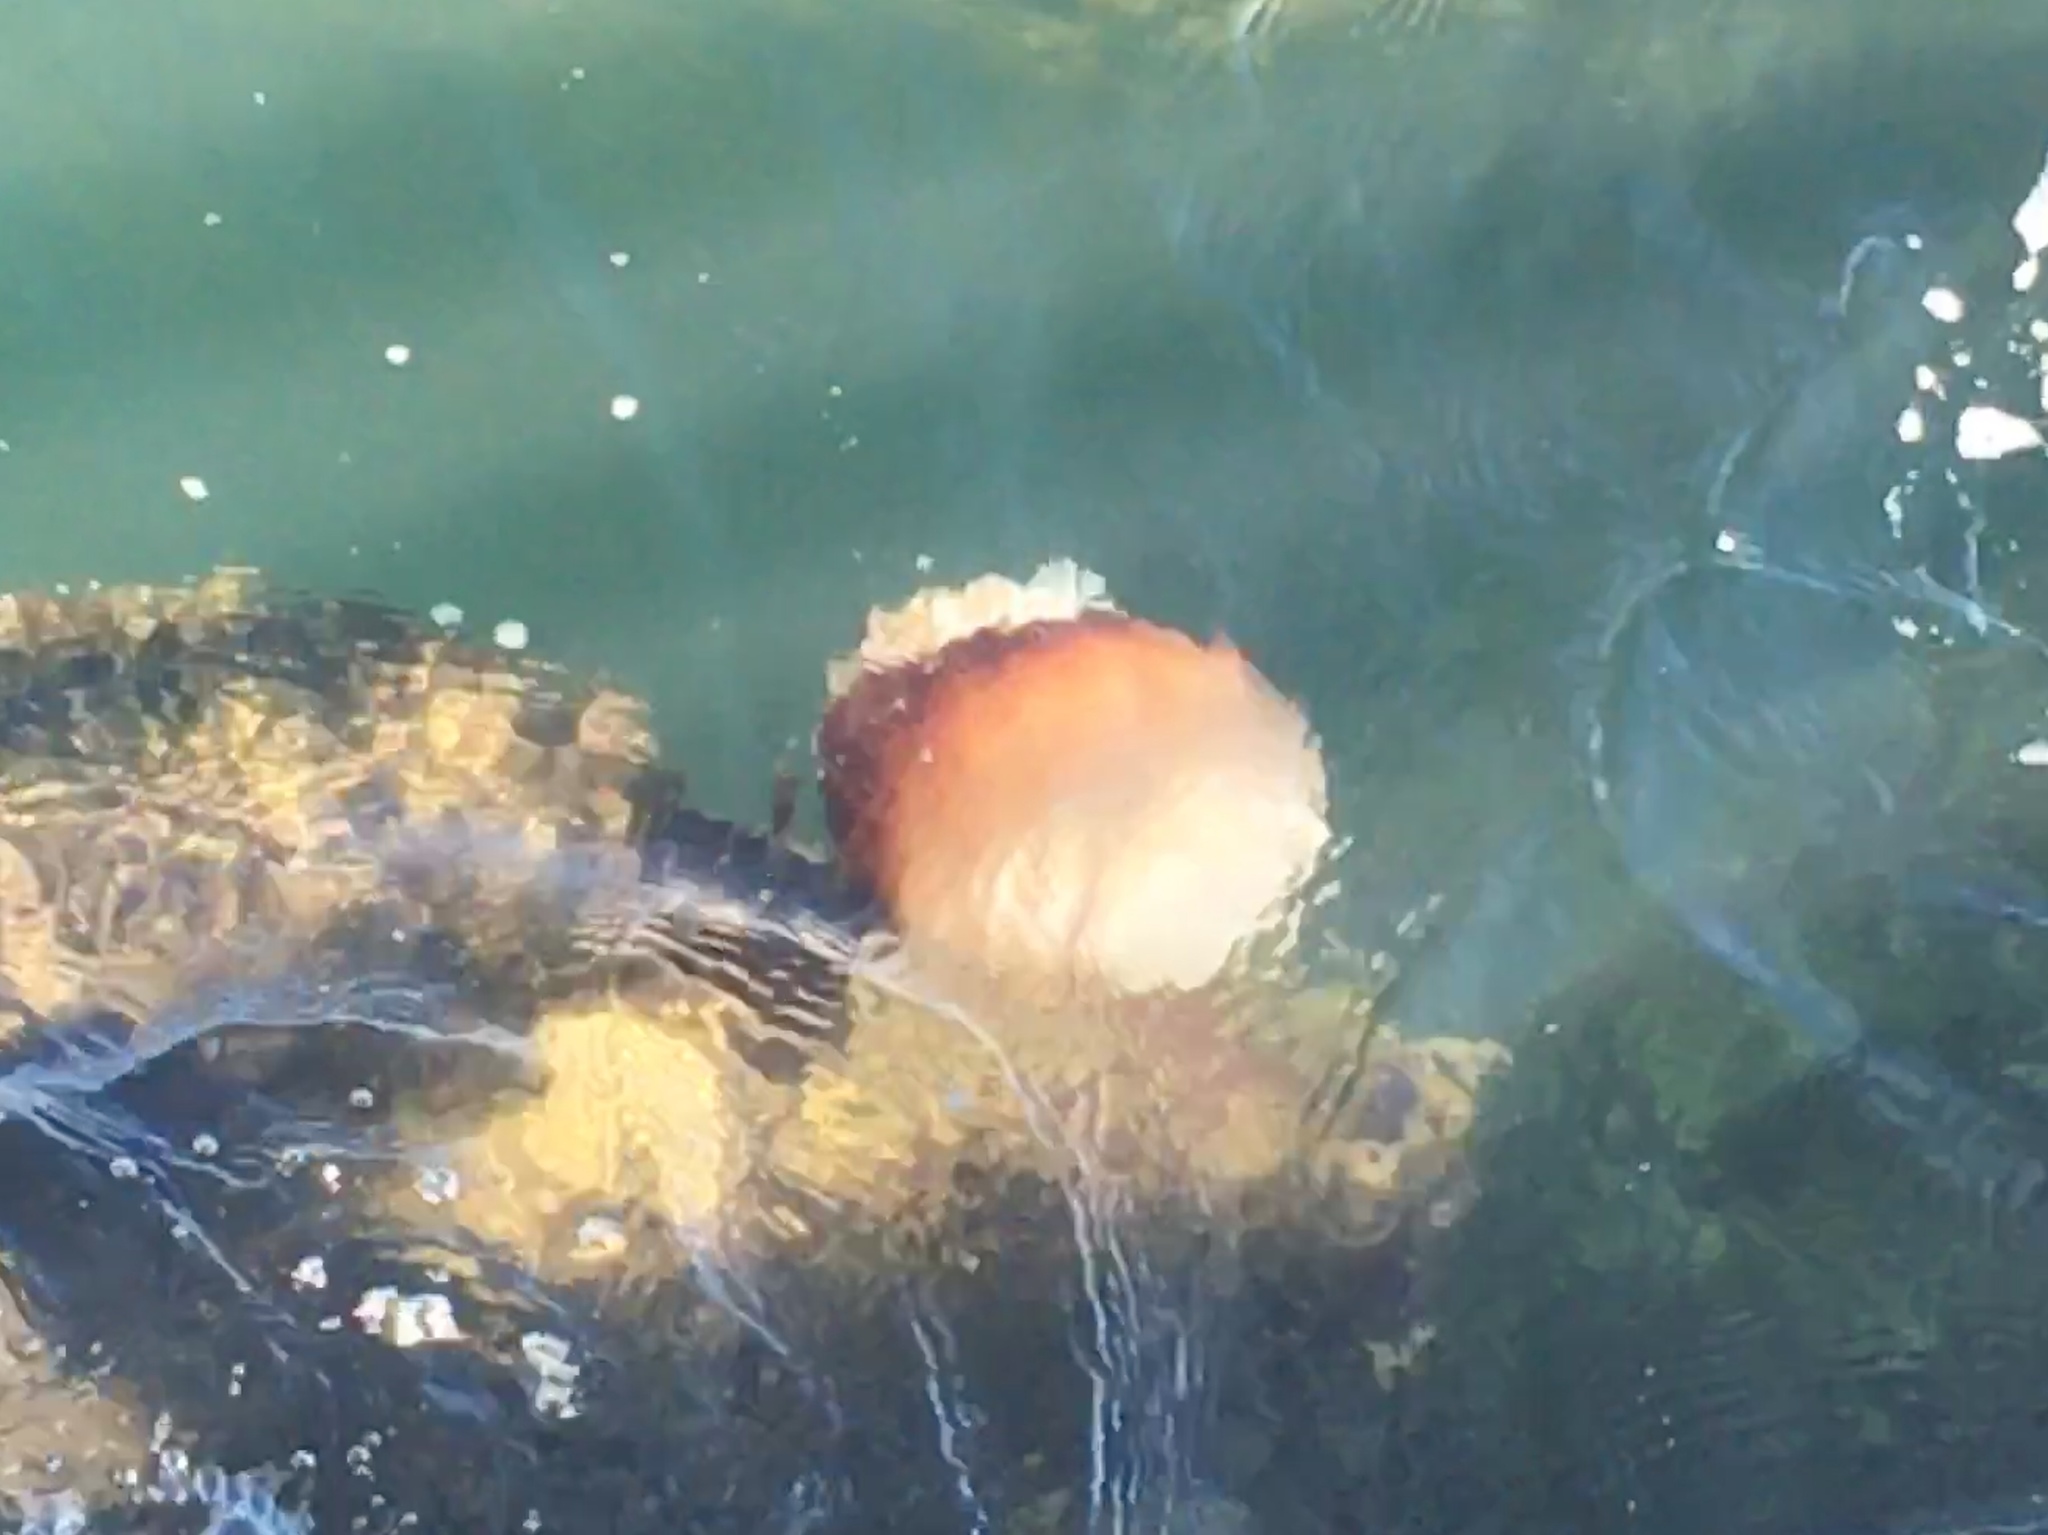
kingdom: Animalia
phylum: Cnidaria
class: Scyphozoa
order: Rhizostomeae
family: Stomolophidae
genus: Stomolophus
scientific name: Stomolophus meleagris
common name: Cabbagehead
